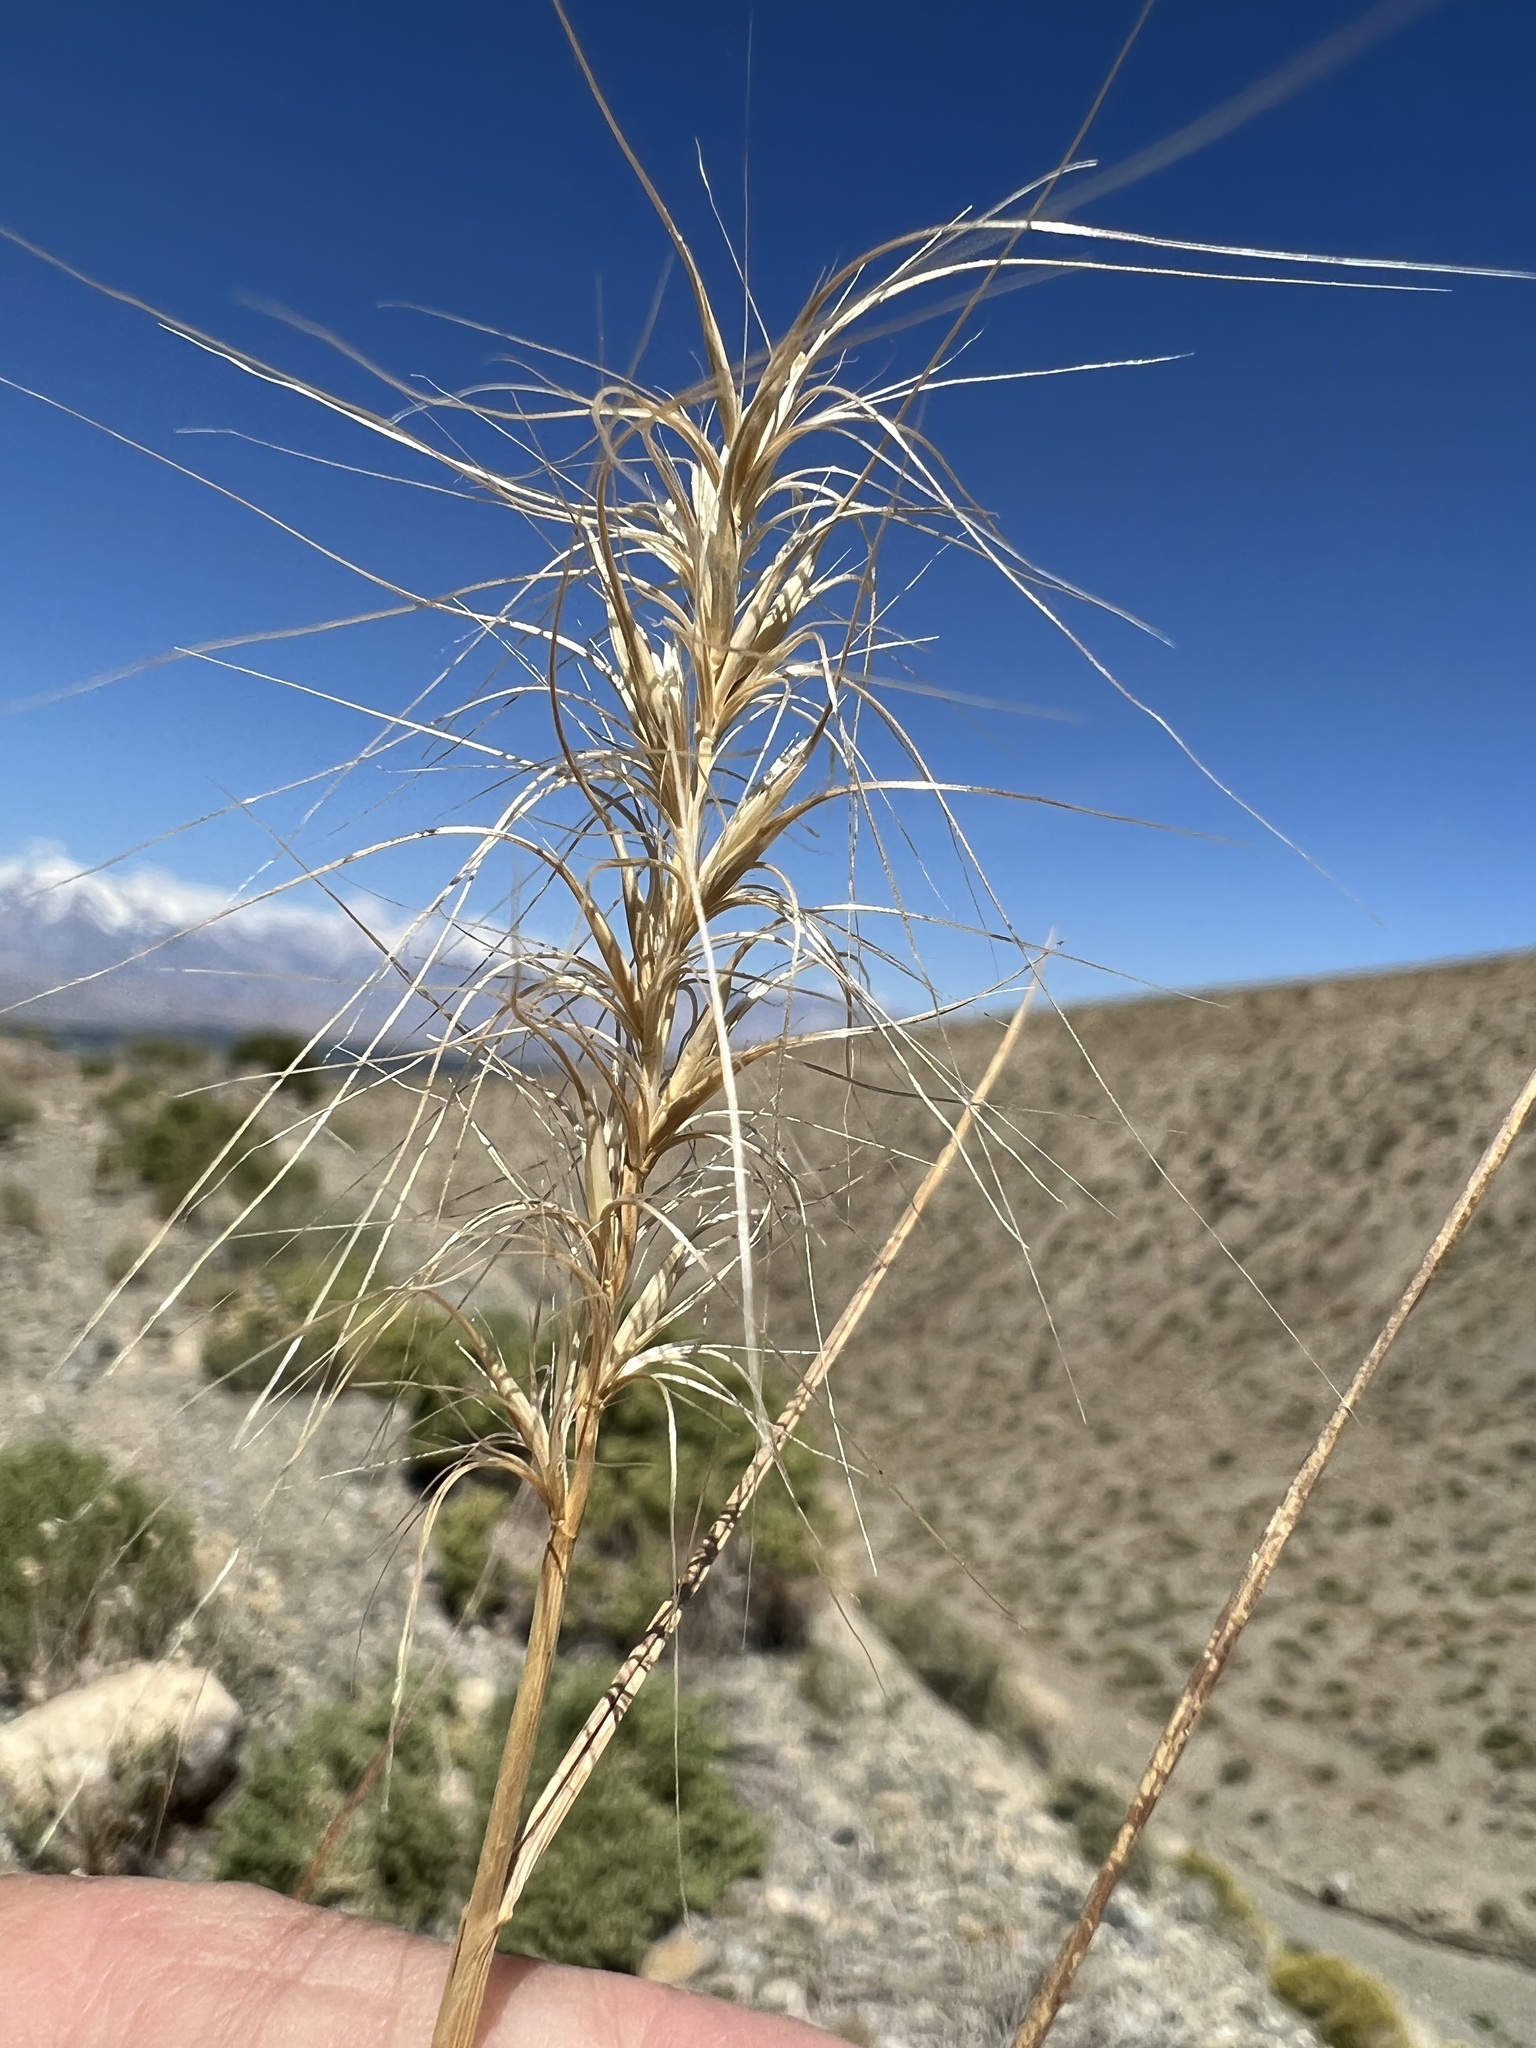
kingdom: Plantae
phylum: Tracheophyta
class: Liliopsida
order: Poales
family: Poaceae
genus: Elymus
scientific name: Elymus elymoides
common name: Bottlebrush squirreltail
